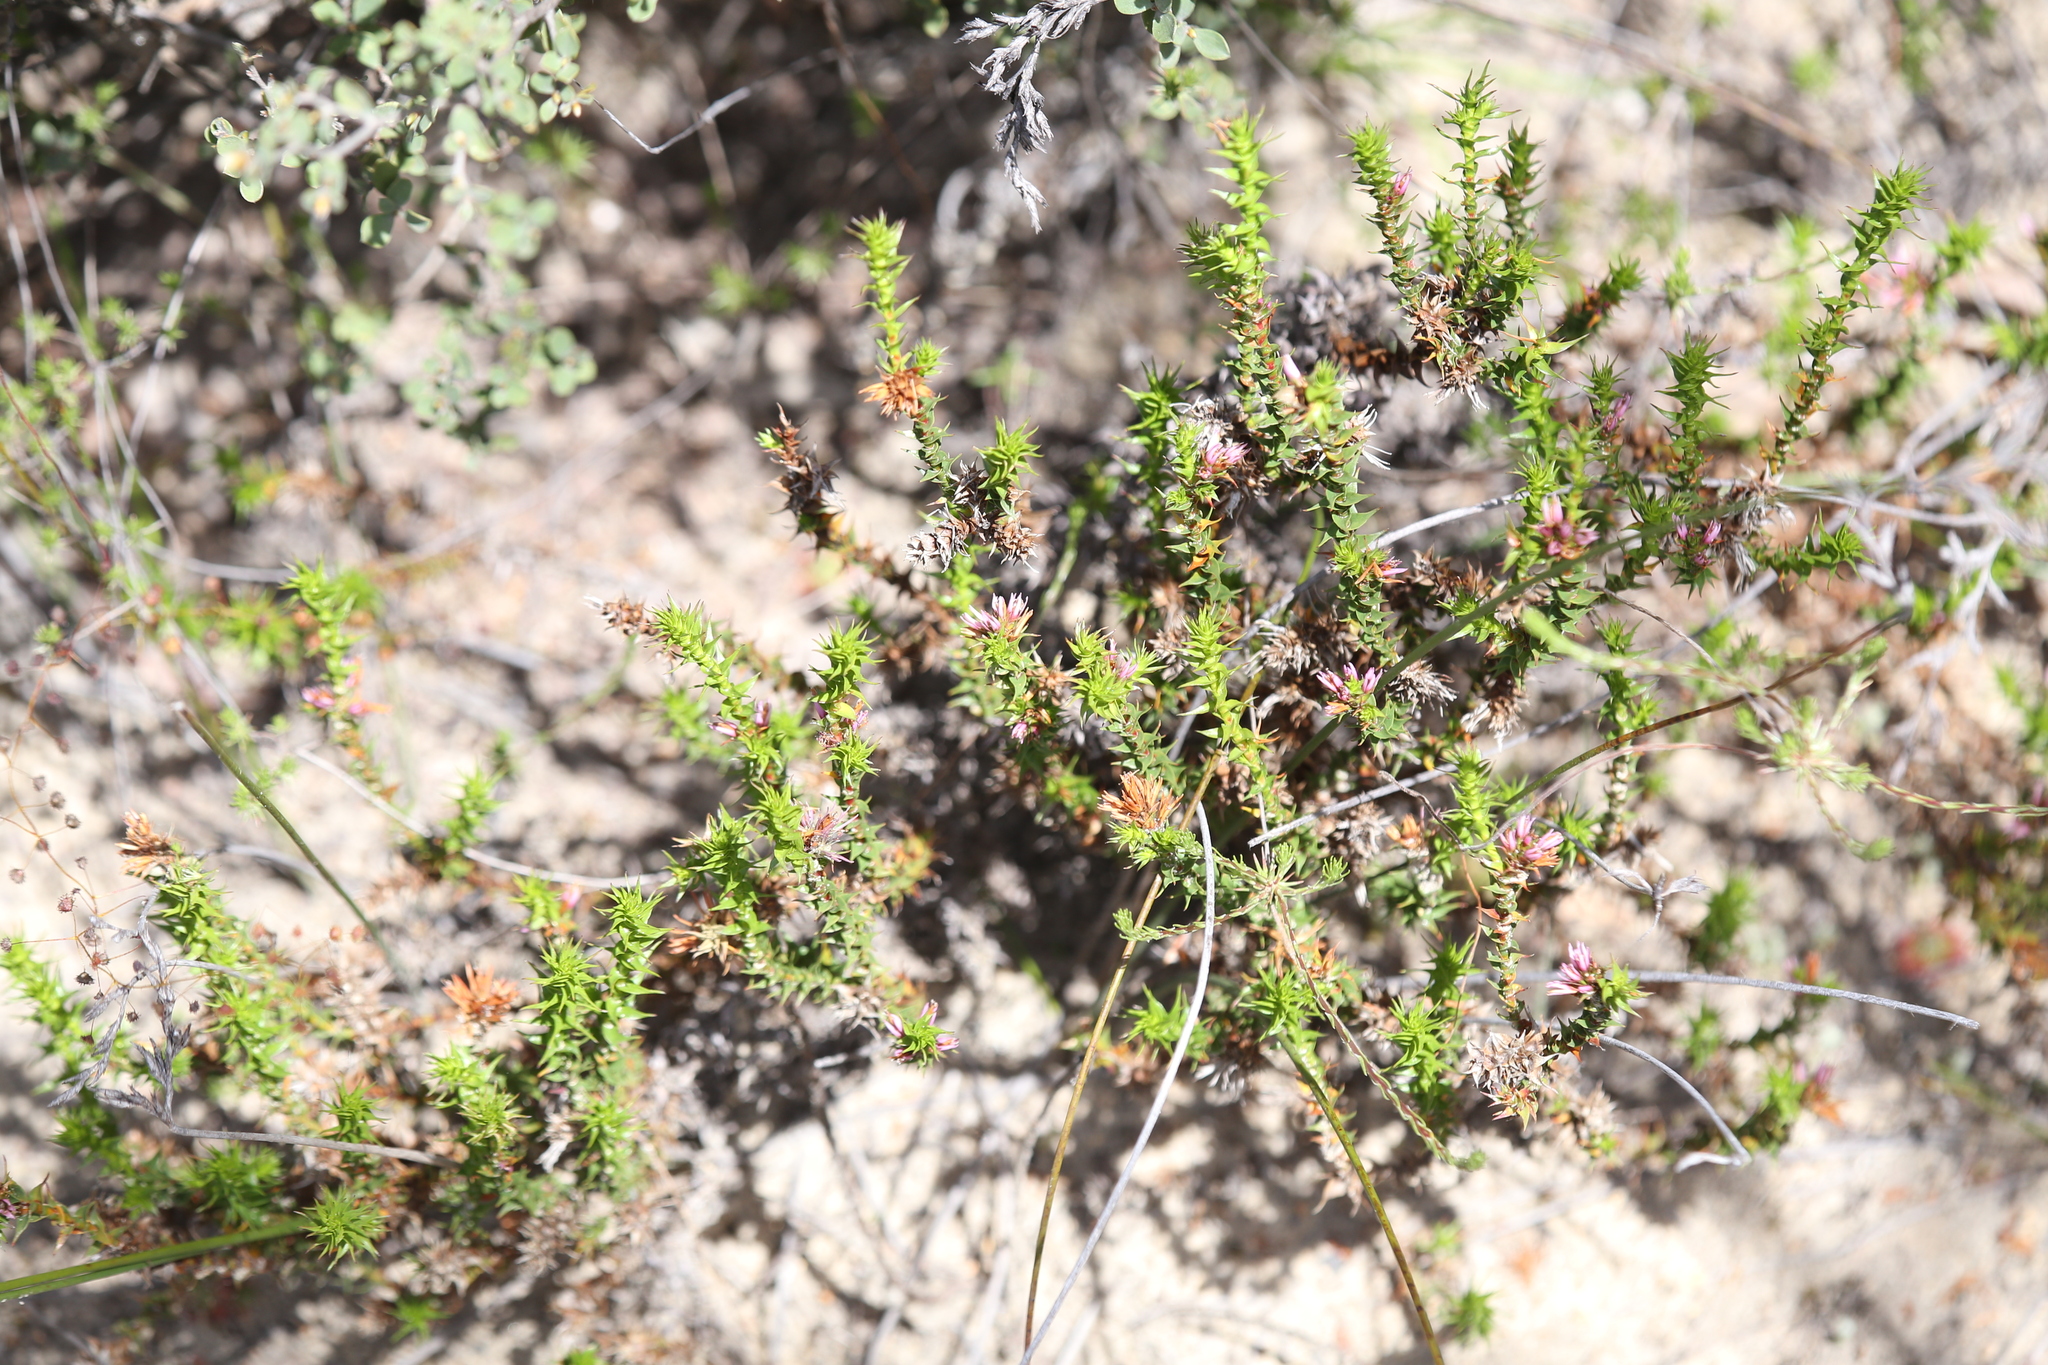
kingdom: Plantae
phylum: Tracheophyta
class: Magnoliopsida
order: Ericales
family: Ericaceae
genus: Andersonia
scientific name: Andersonia lehmanniana
